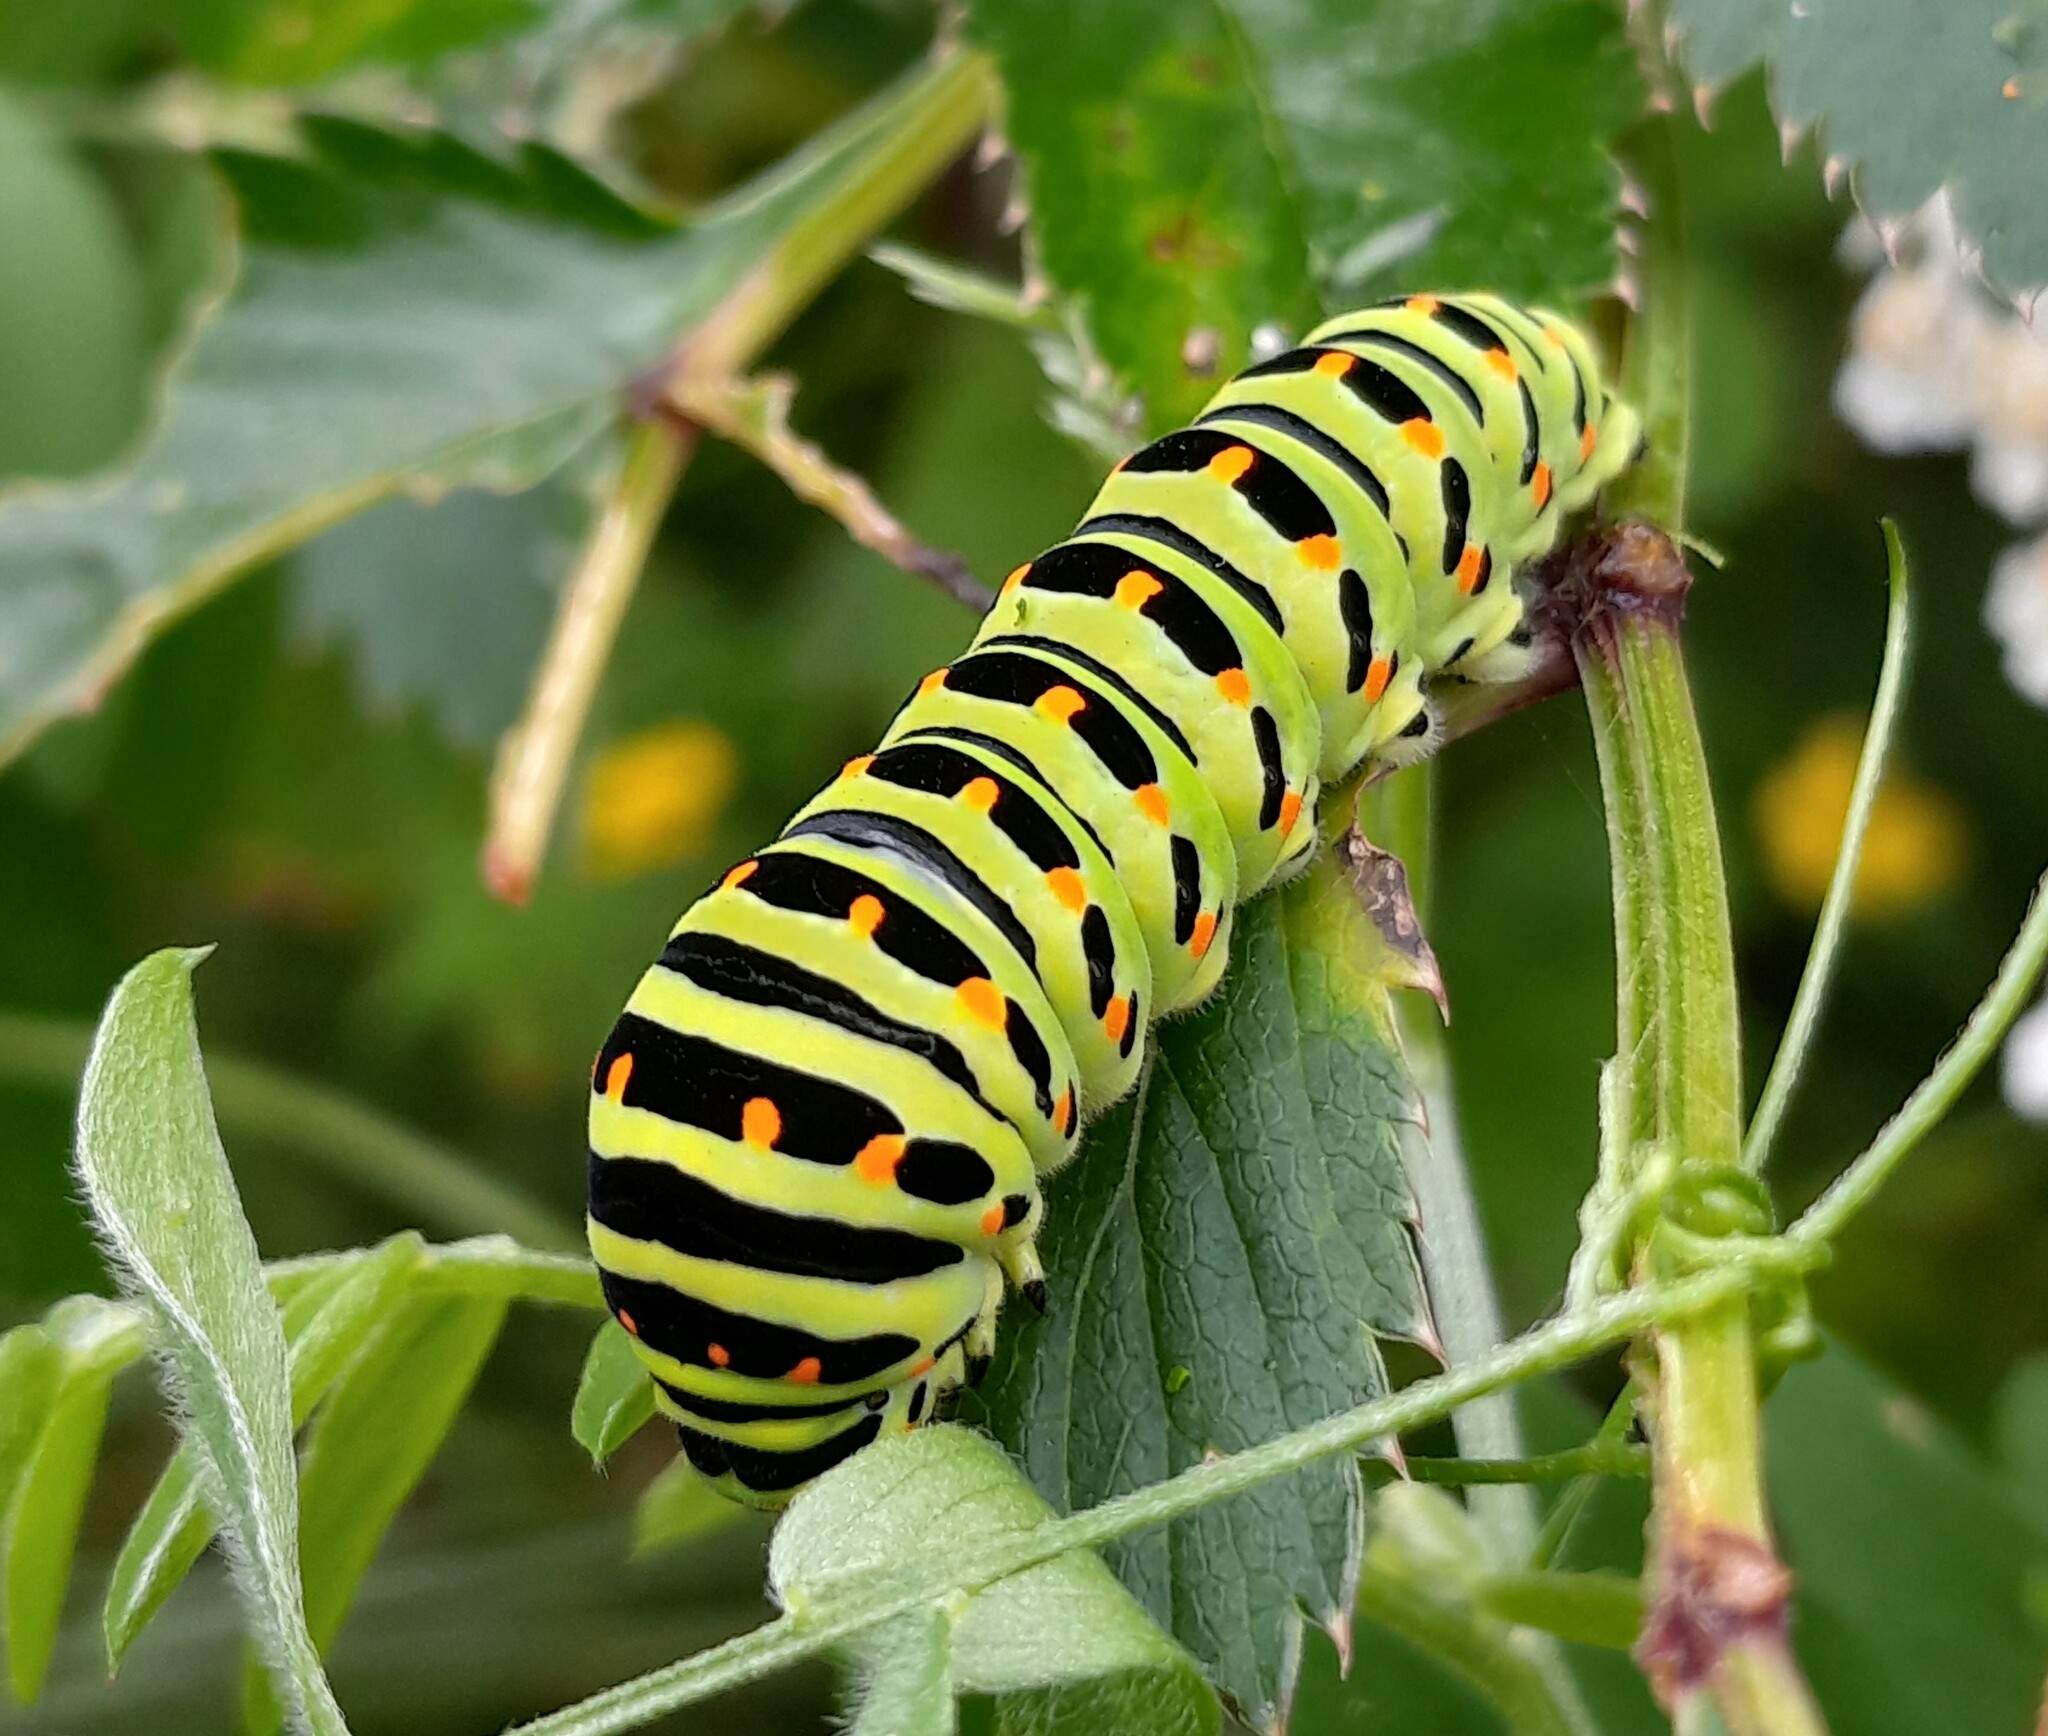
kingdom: Animalia
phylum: Arthropoda
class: Insecta
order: Lepidoptera
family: Papilionidae
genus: Papilio
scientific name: Papilio machaon
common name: Swallowtail
